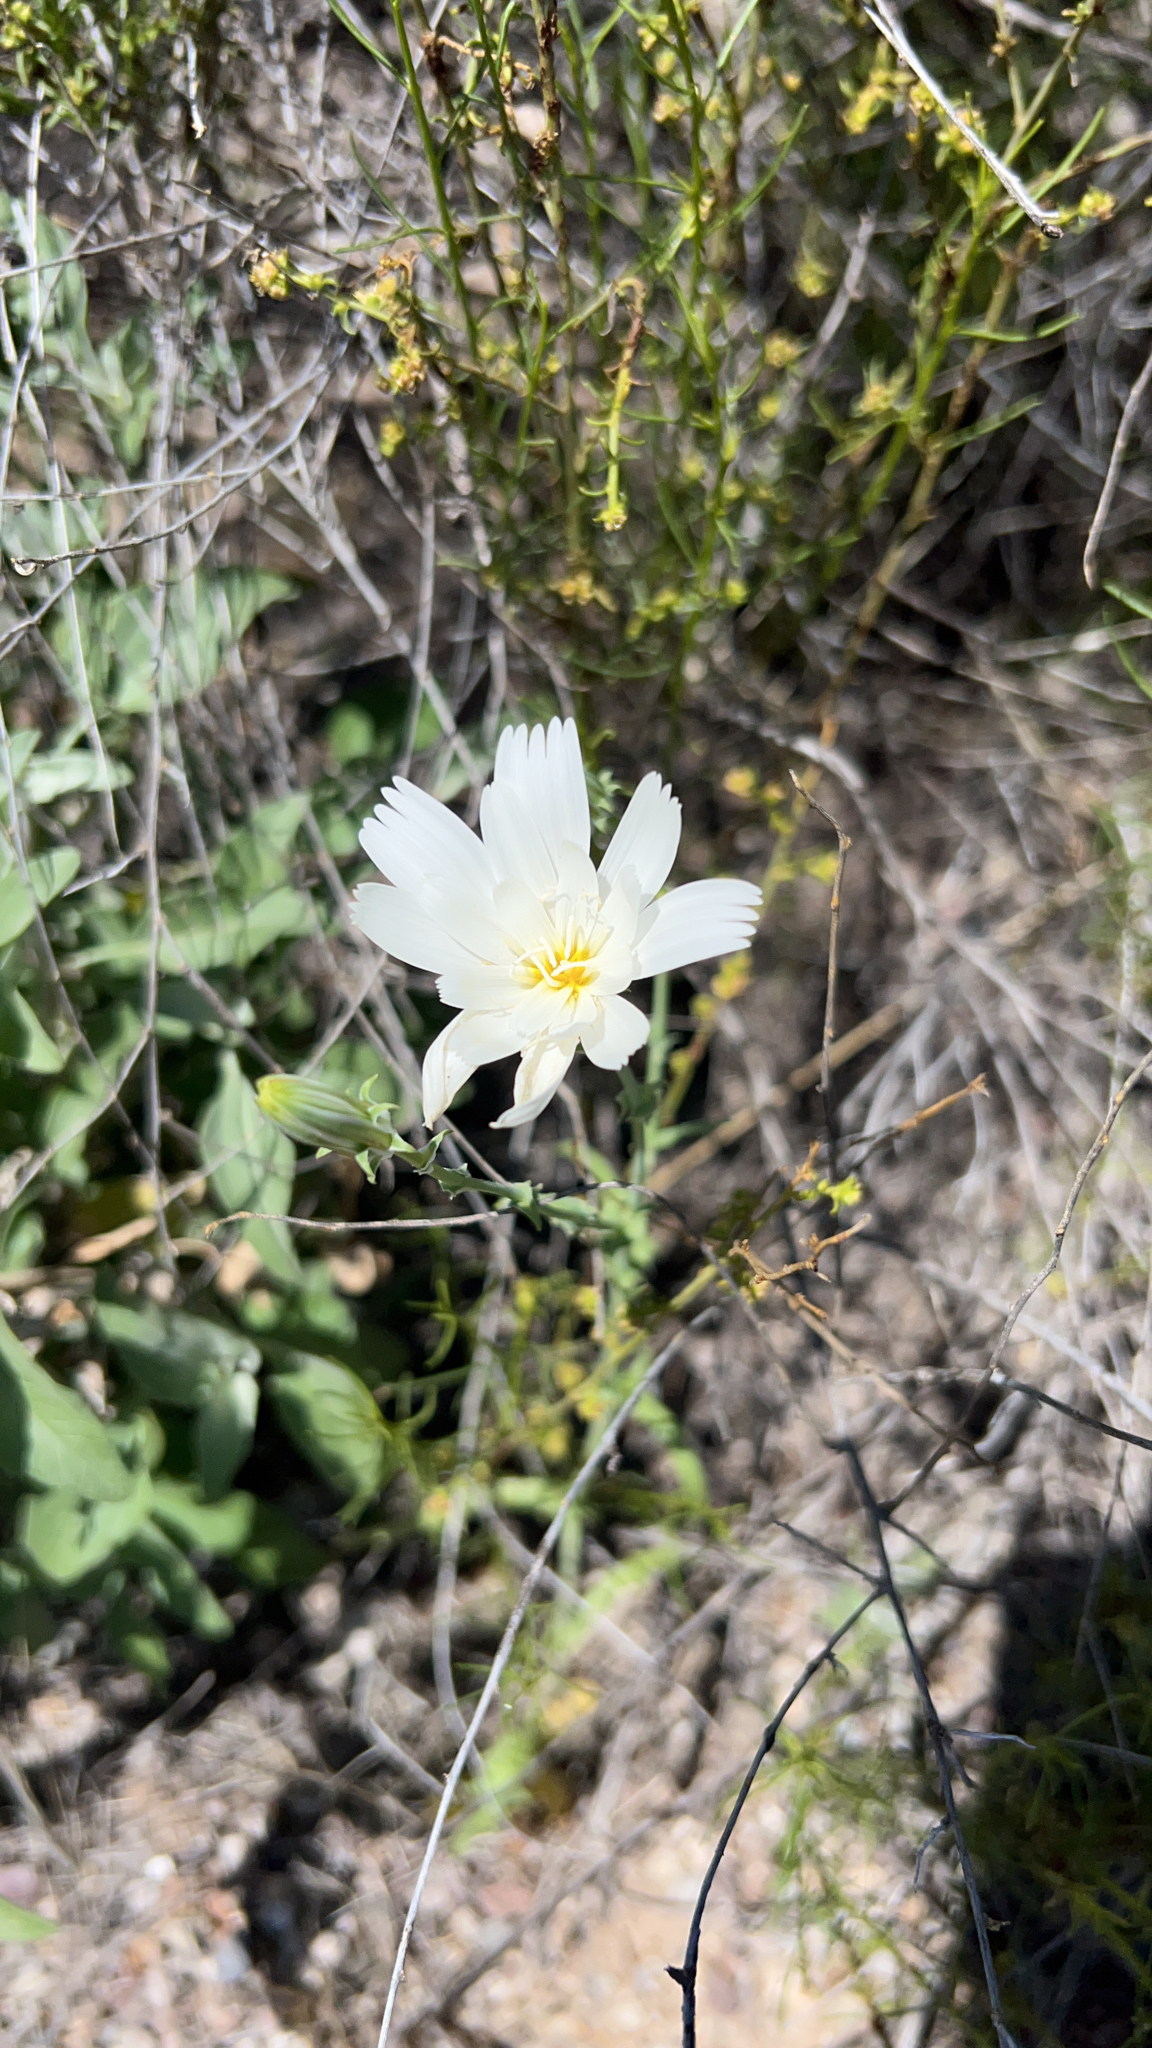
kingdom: Plantae
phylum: Tracheophyta
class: Magnoliopsida
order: Asterales
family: Asteraceae
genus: Rafinesquia
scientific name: Rafinesquia neomexicana
